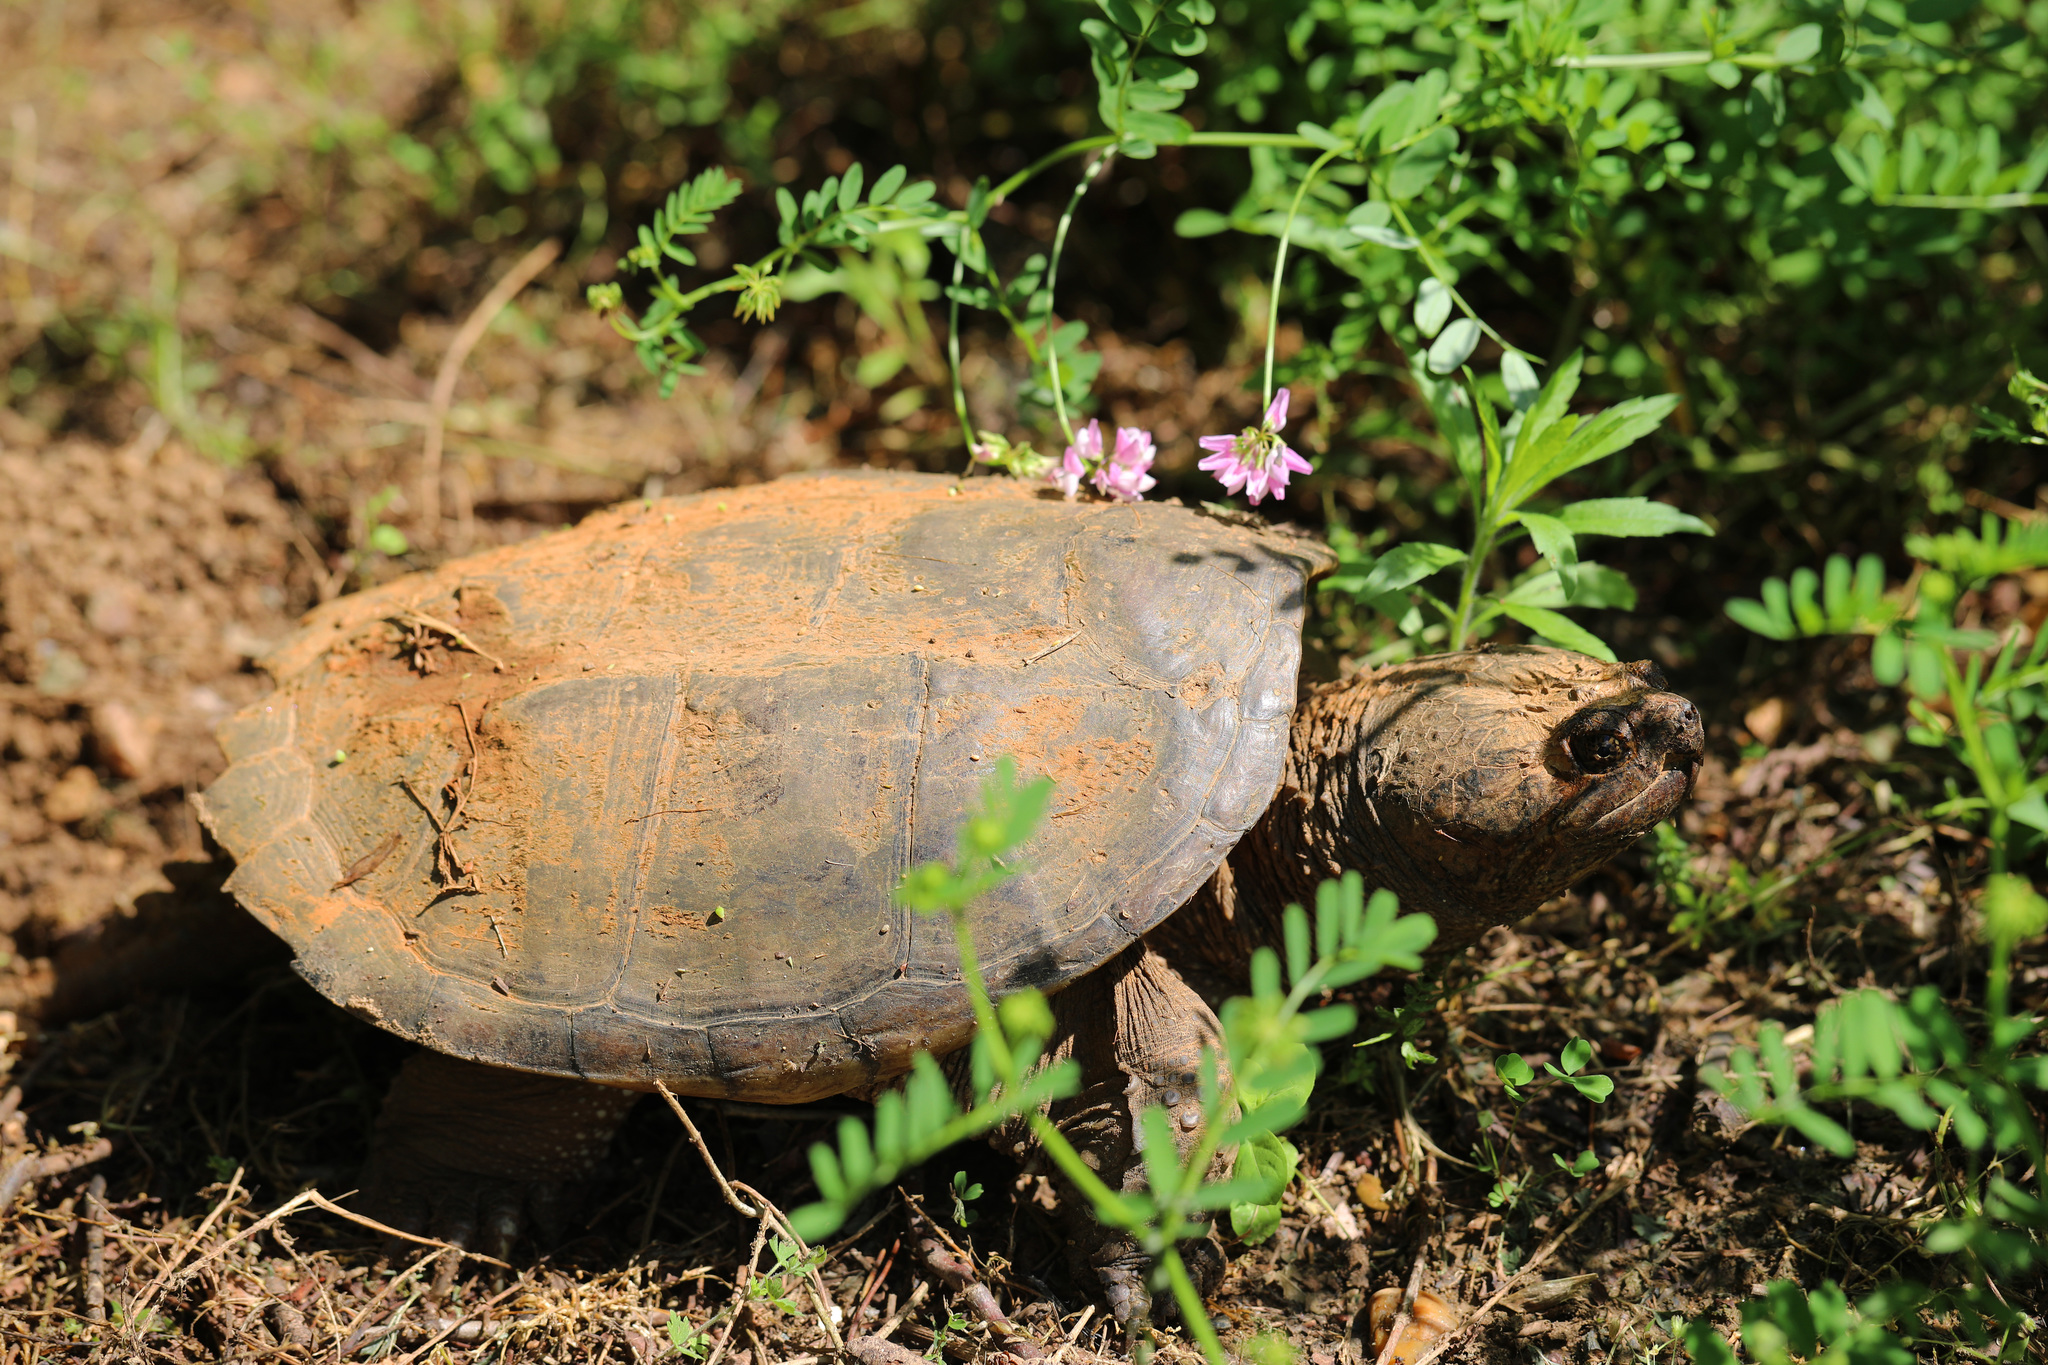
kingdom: Animalia
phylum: Chordata
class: Testudines
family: Chelydridae
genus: Chelydra
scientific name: Chelydra serpentina
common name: Common snapping turtle
